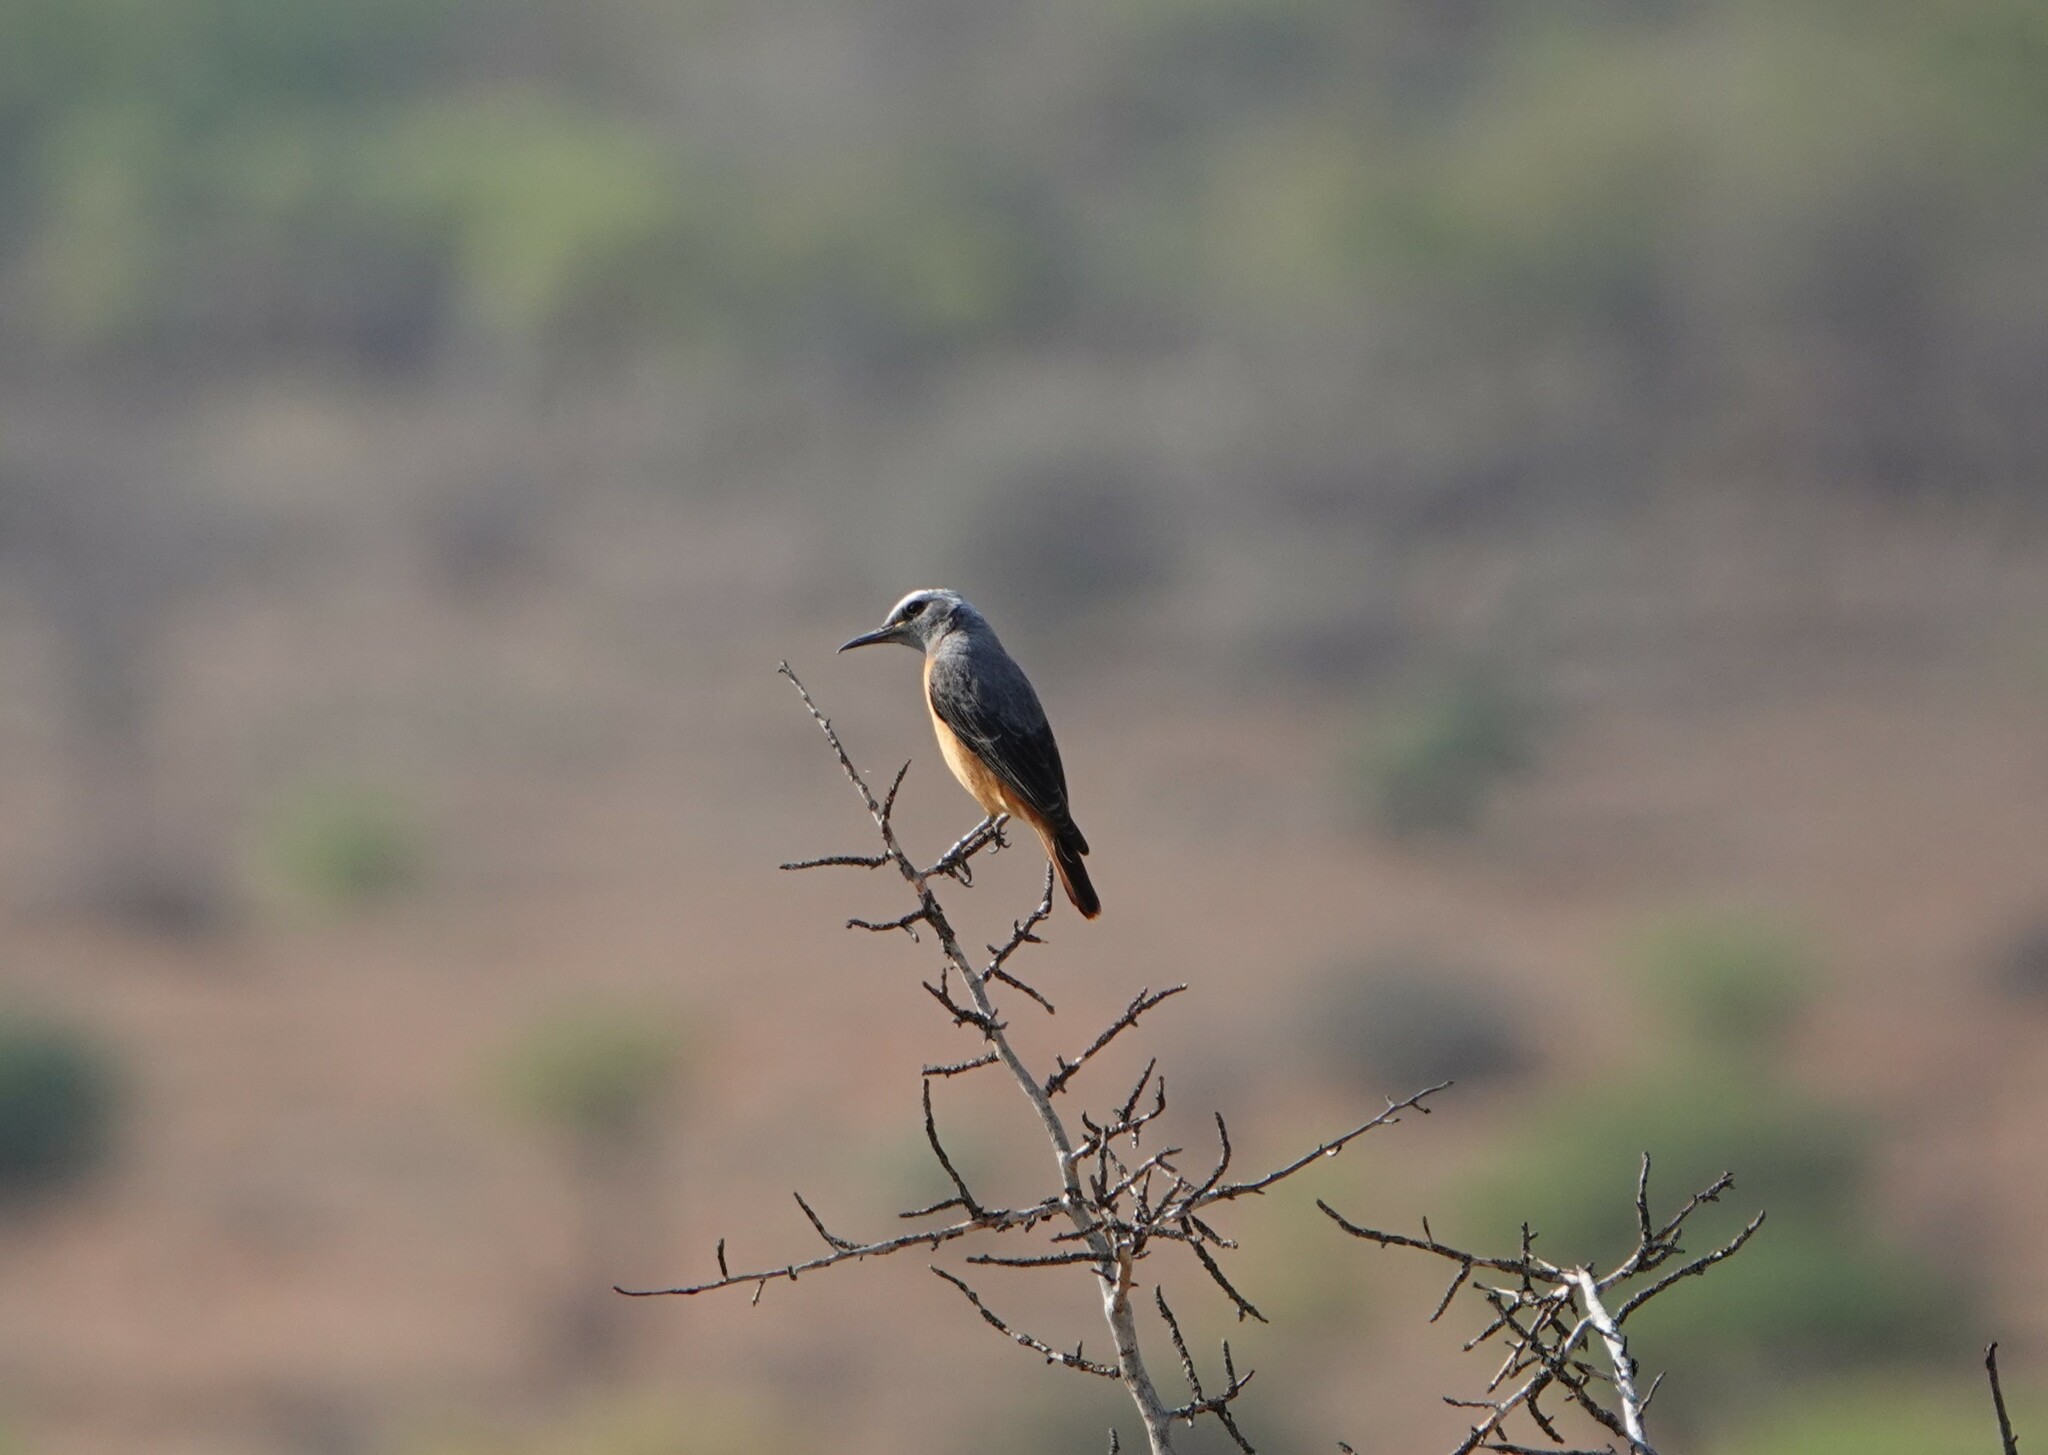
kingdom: Animalia
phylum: Chordata
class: Aves
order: Passeriformes
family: Muscicapidae
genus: Monticola
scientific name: Monticola brevipes
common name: Short-toed rock thrush
